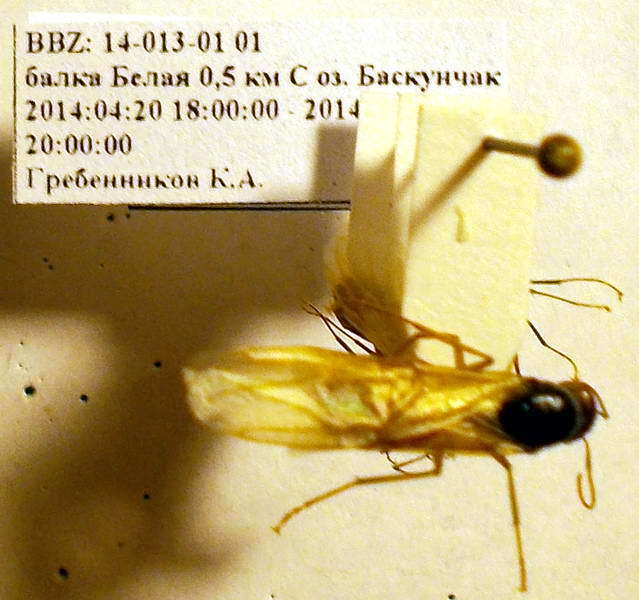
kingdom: Animalia
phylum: Arthropoda
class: Insecta
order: Hymenoptera
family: Formicidae
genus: Camponotus
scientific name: Camponotus fedtschenkoi
